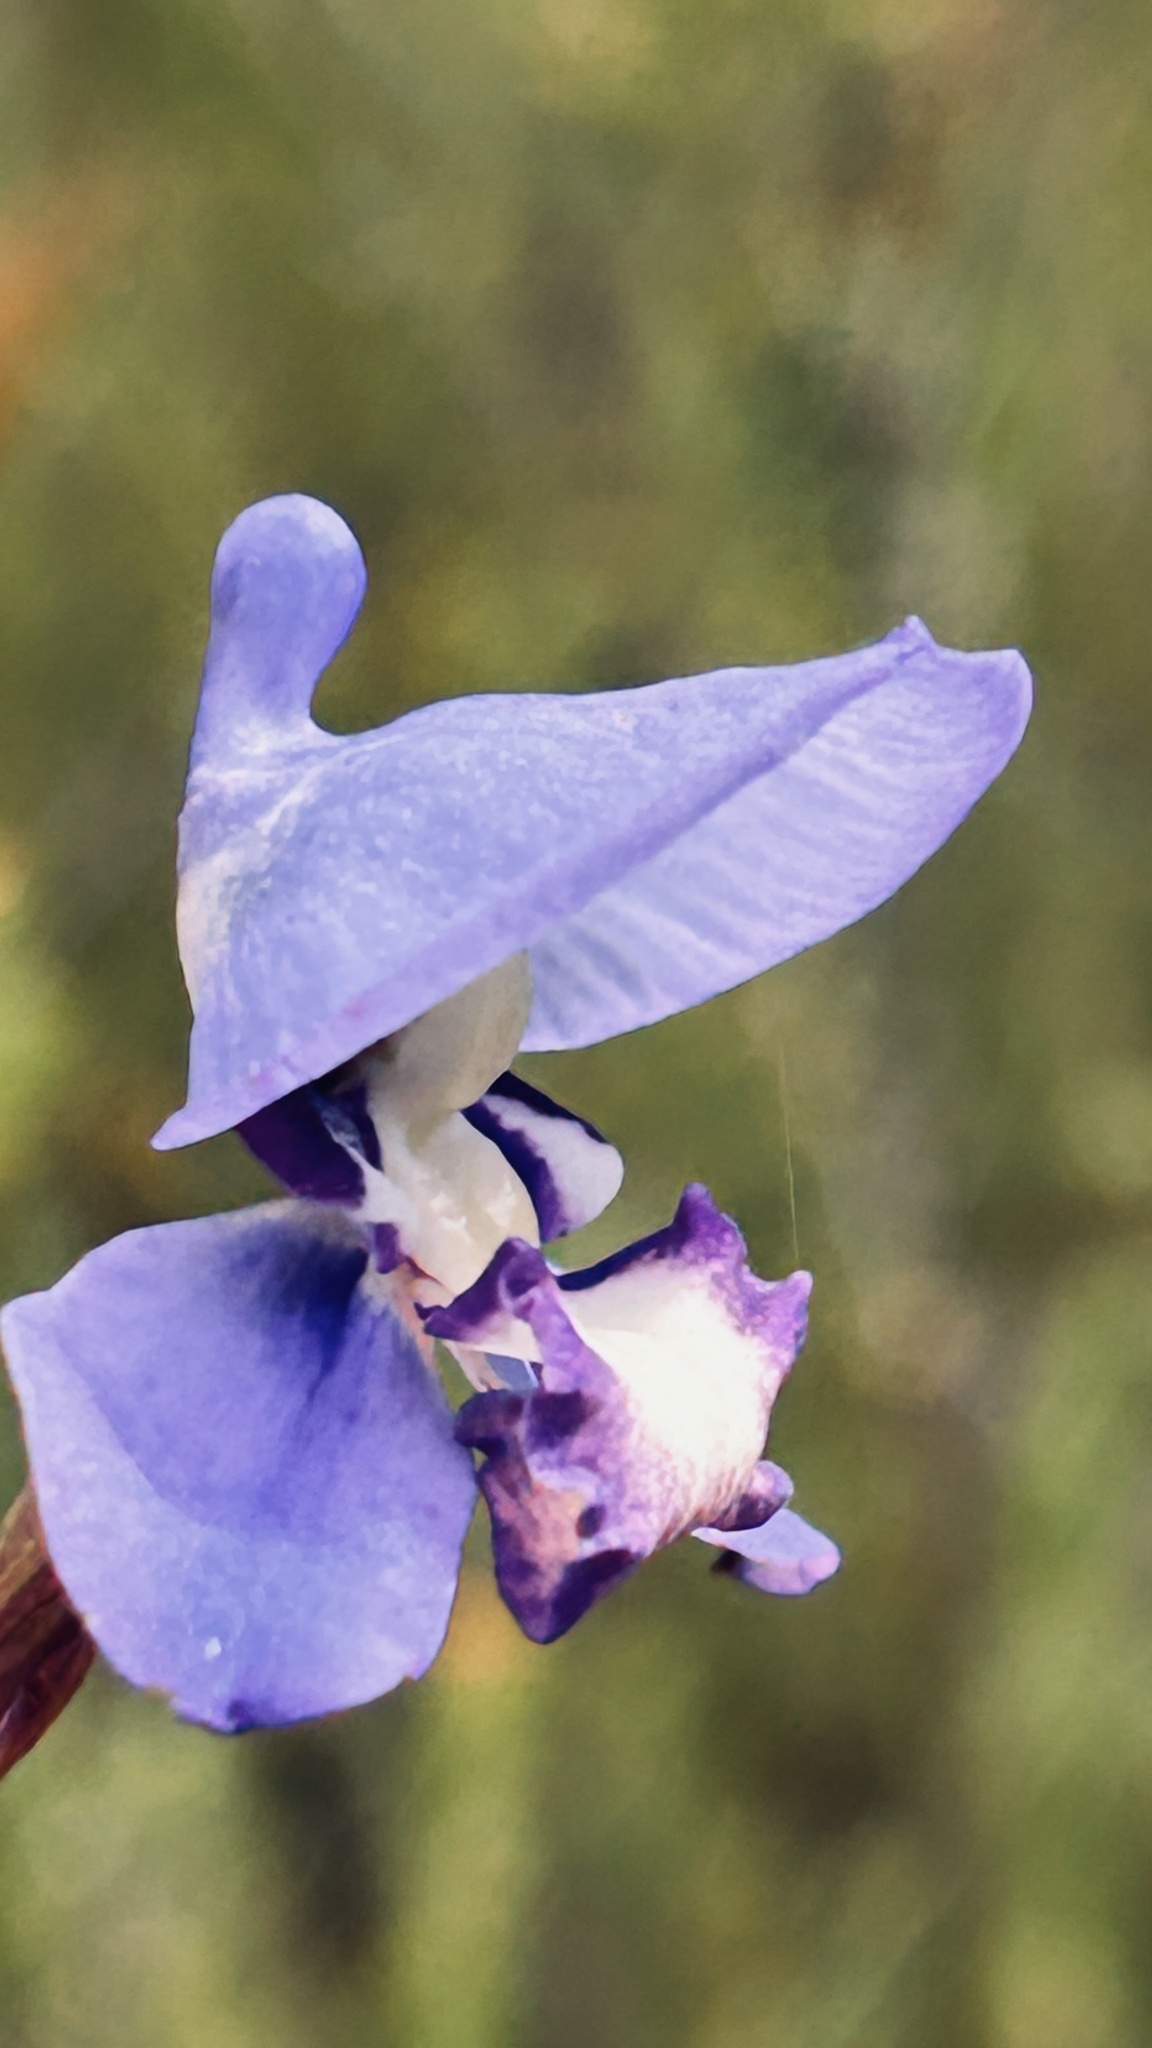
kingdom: Plantae
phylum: Tracheophyta
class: Liliopsida
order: Asparagales
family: Orchidaceae
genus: Disa
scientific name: Disa graminifolia
